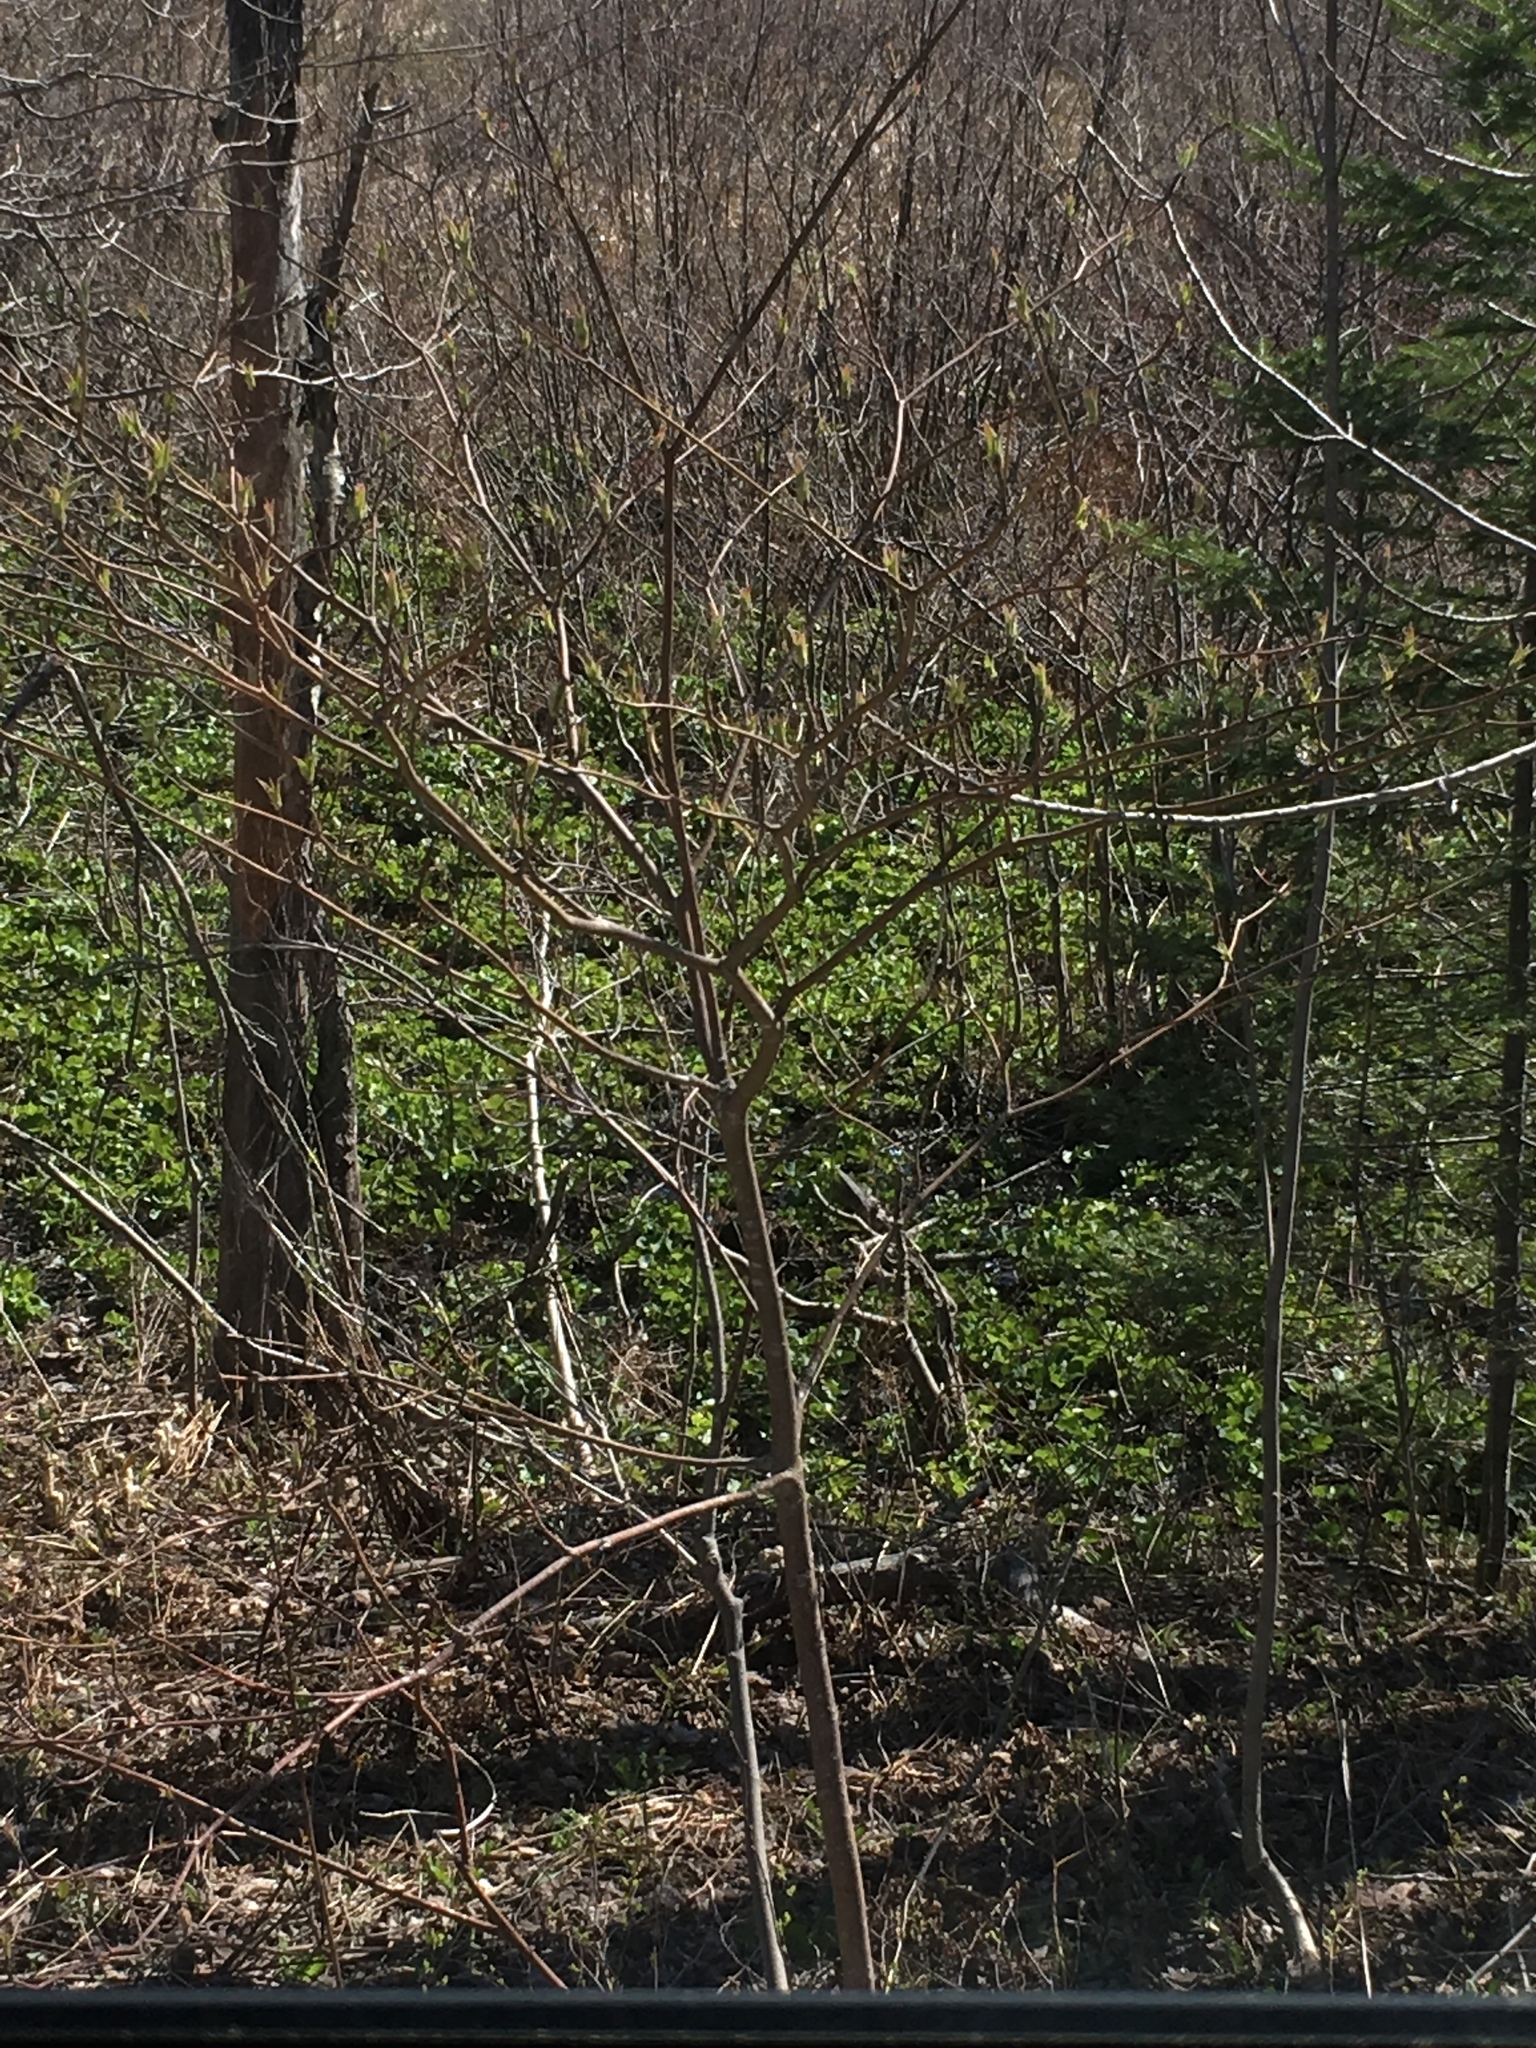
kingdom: Plantae
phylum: Tracheophyta
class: Magnoliopsida
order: Cornales
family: Cornaceae
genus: Cornus
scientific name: Cornus alternifolia
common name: Pagoda dogwood
